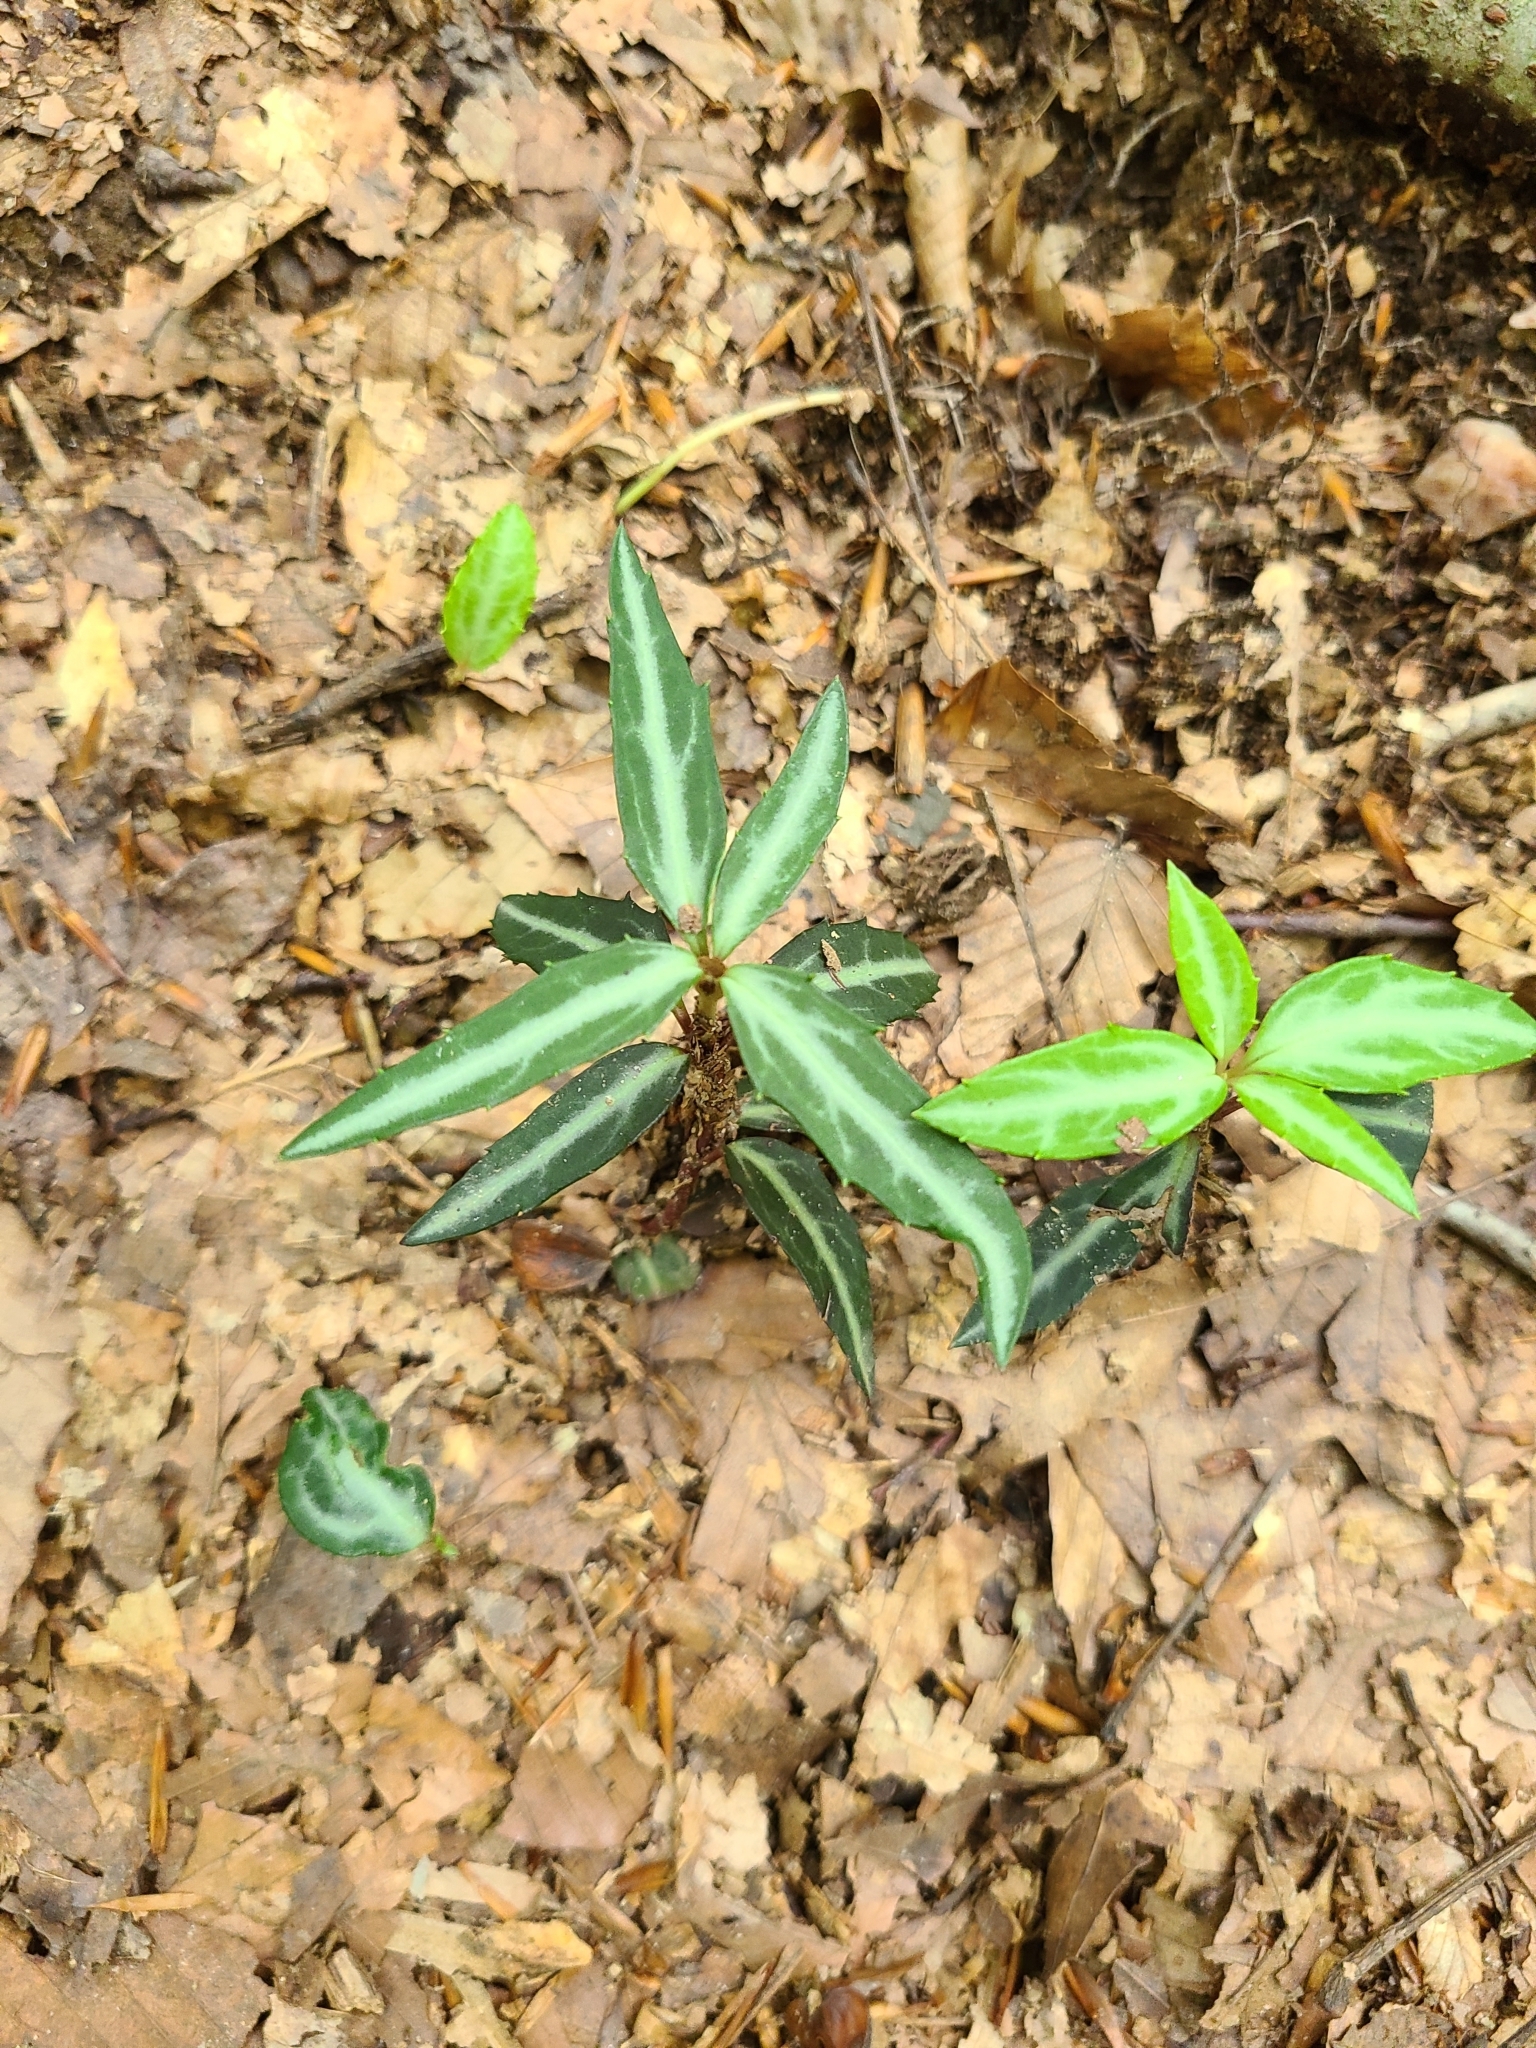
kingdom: Plantae
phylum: Tracheophyta
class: Magnoliopsida
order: Ericales
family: Ericaceae
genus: Chimaphila
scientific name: Chimaphila maculata
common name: Spotted pipsissewa
